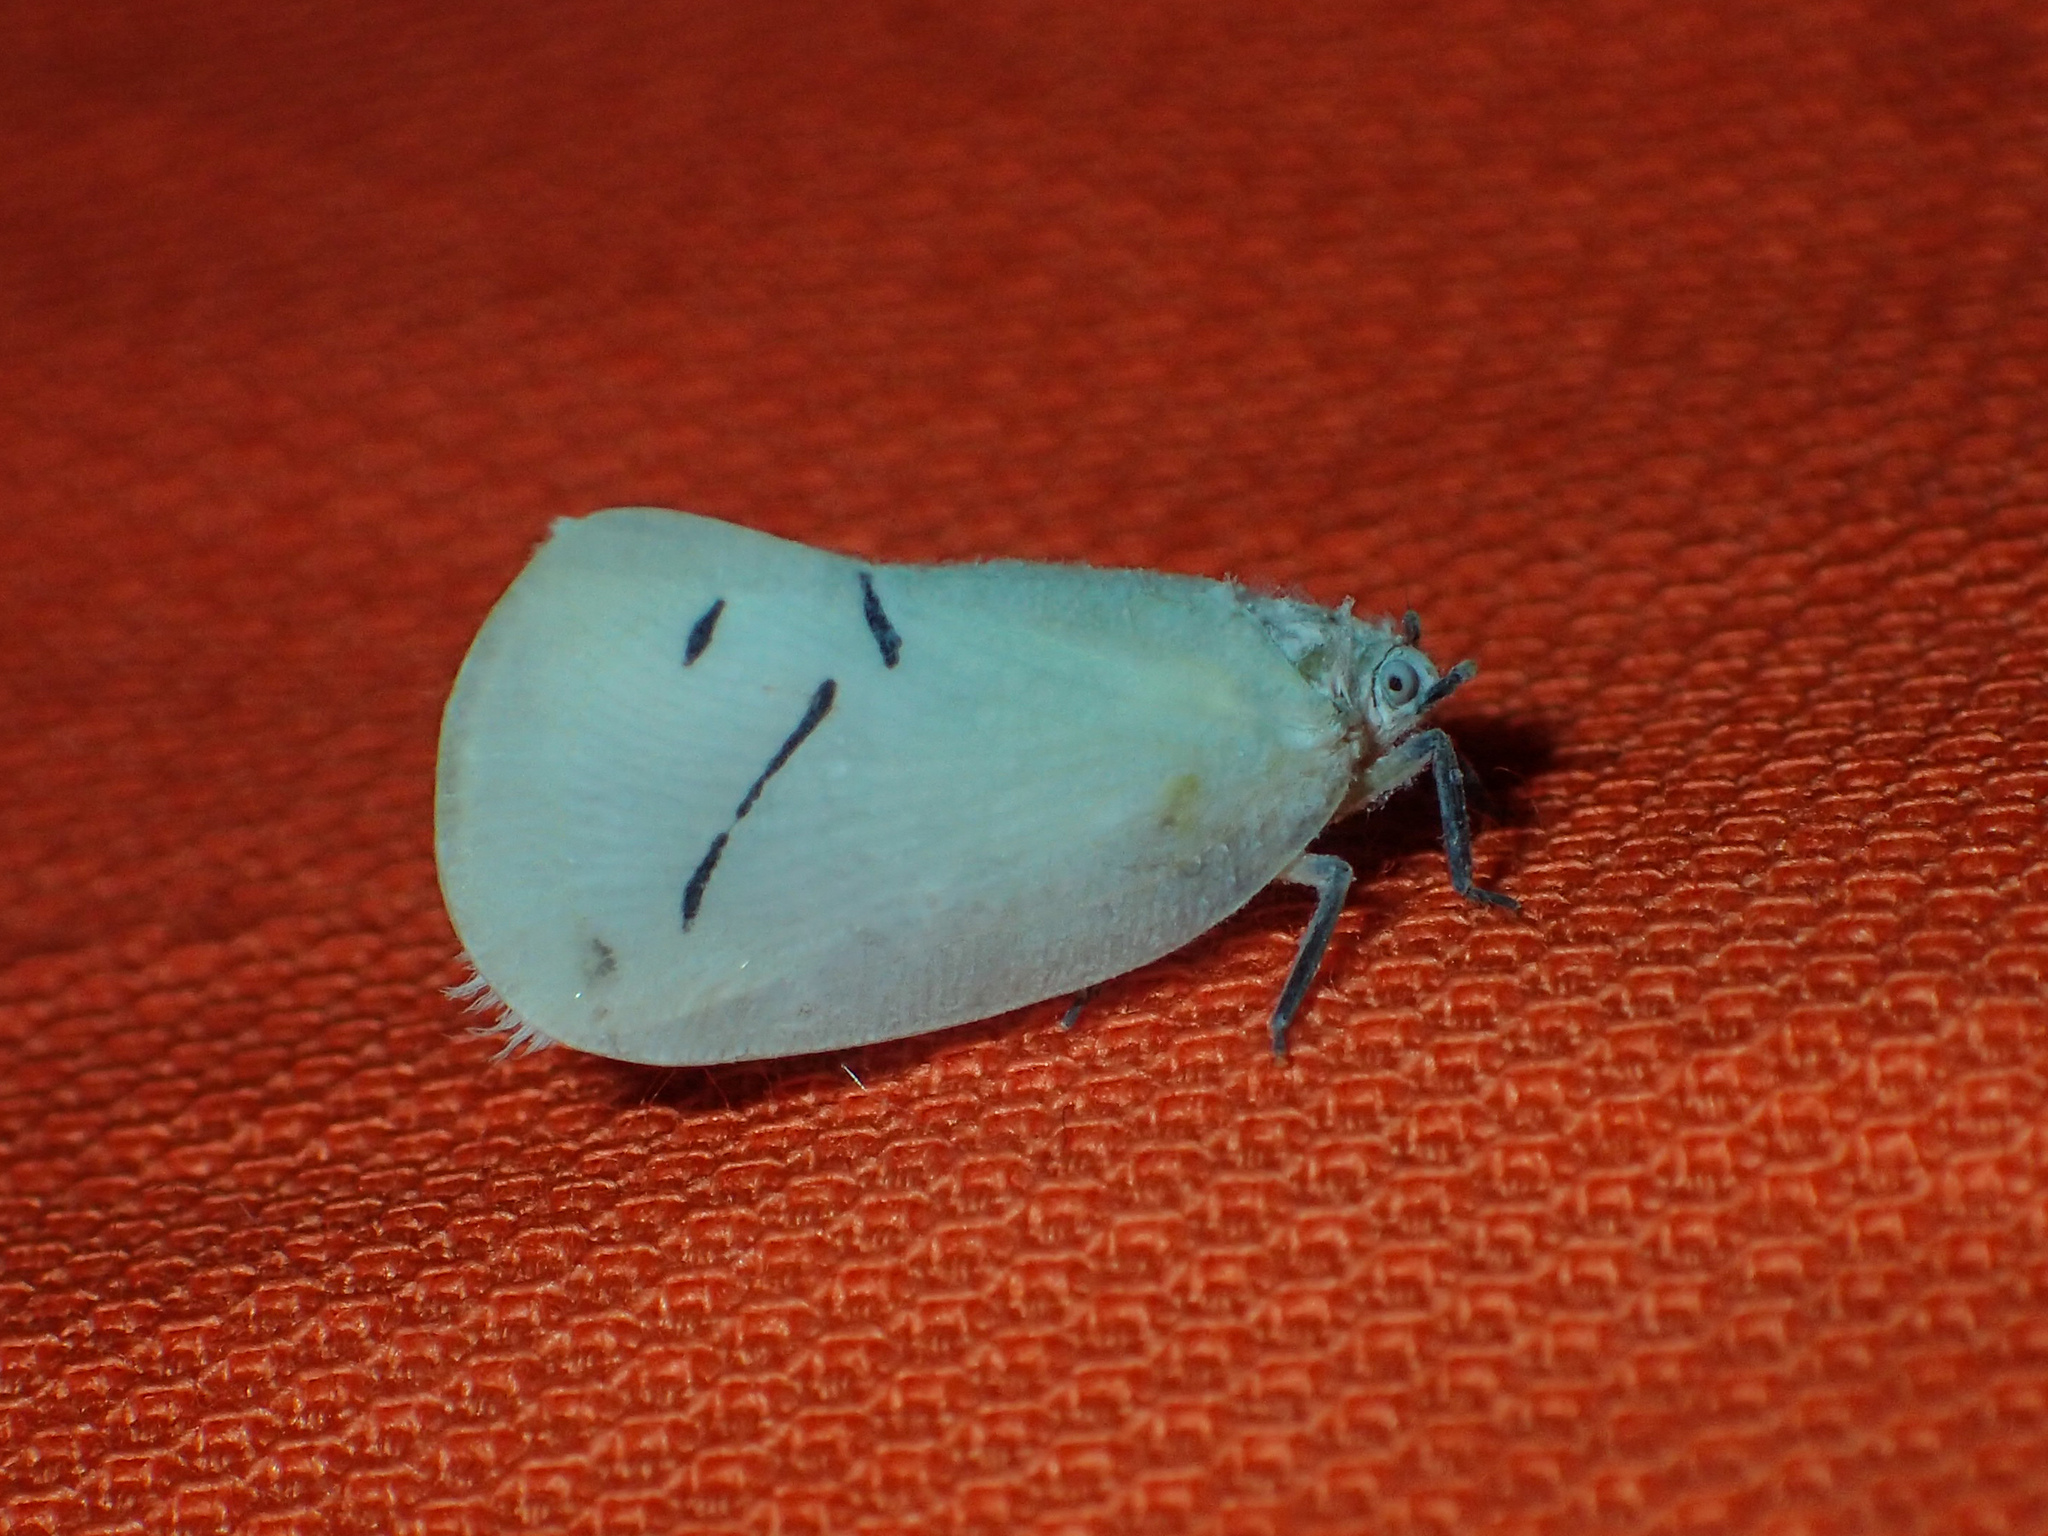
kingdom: Animalia
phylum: Arthropoda
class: Insecta
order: Hemiptera
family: Flatidae
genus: Cerynia
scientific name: Cerynia maria
